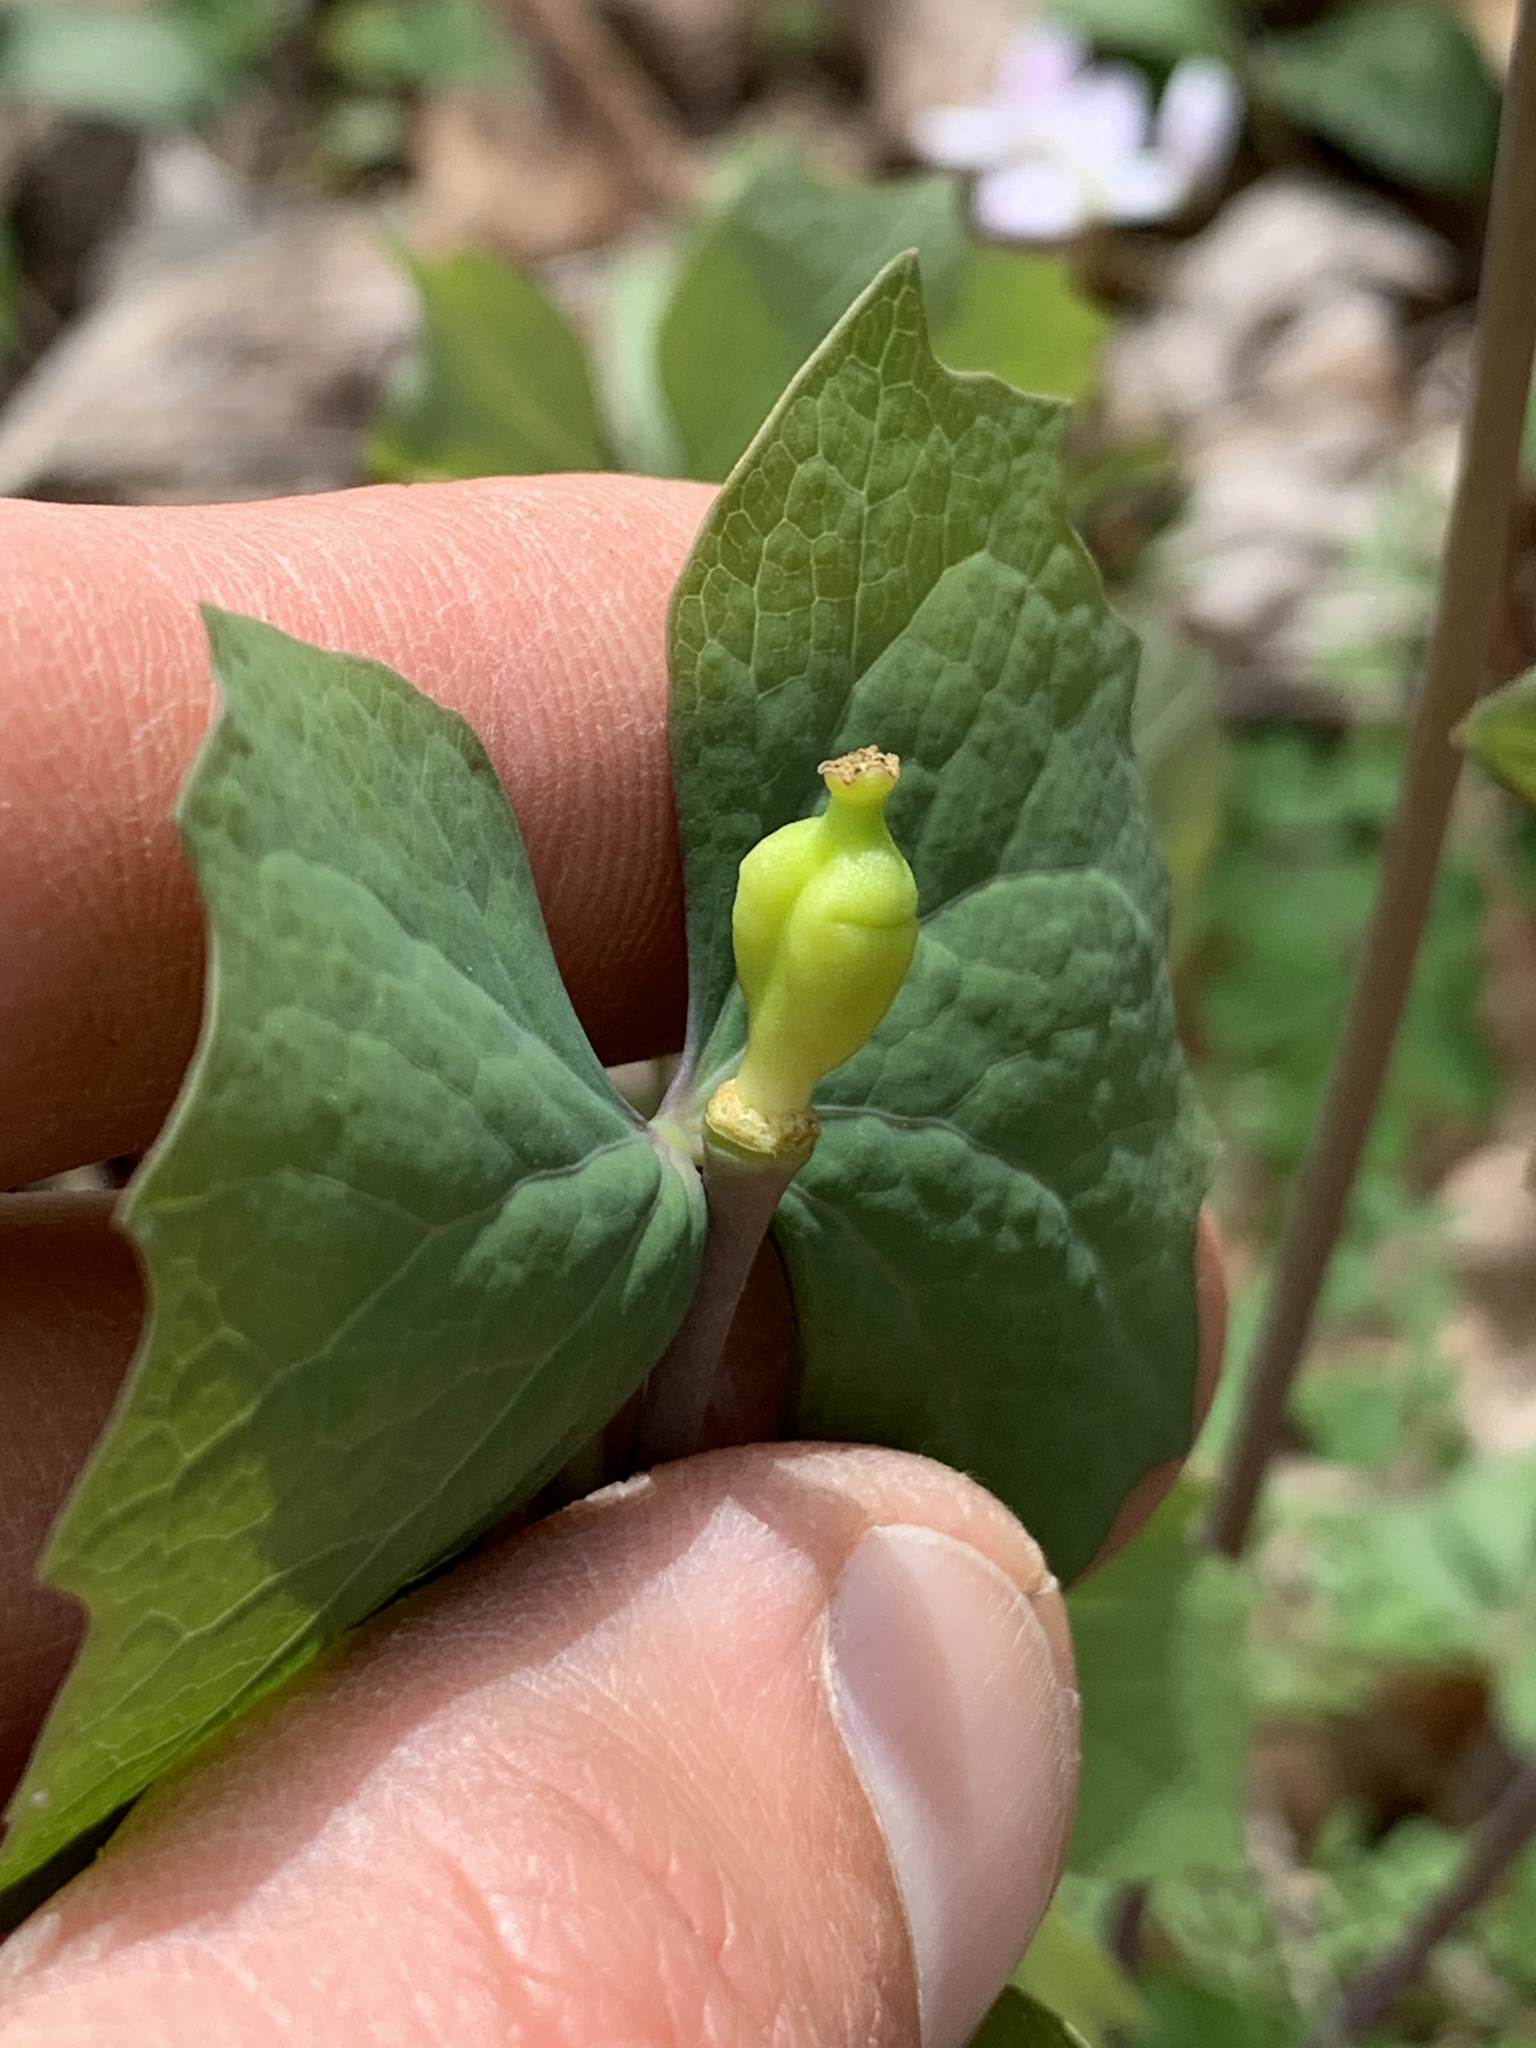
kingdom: Plantae
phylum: Tracheophyta
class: Magnoliopsida
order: Ranunculales
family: Berberidaceae
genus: Jeffersonia
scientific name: Jeffersonia diphylla
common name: Rheumatism-root
